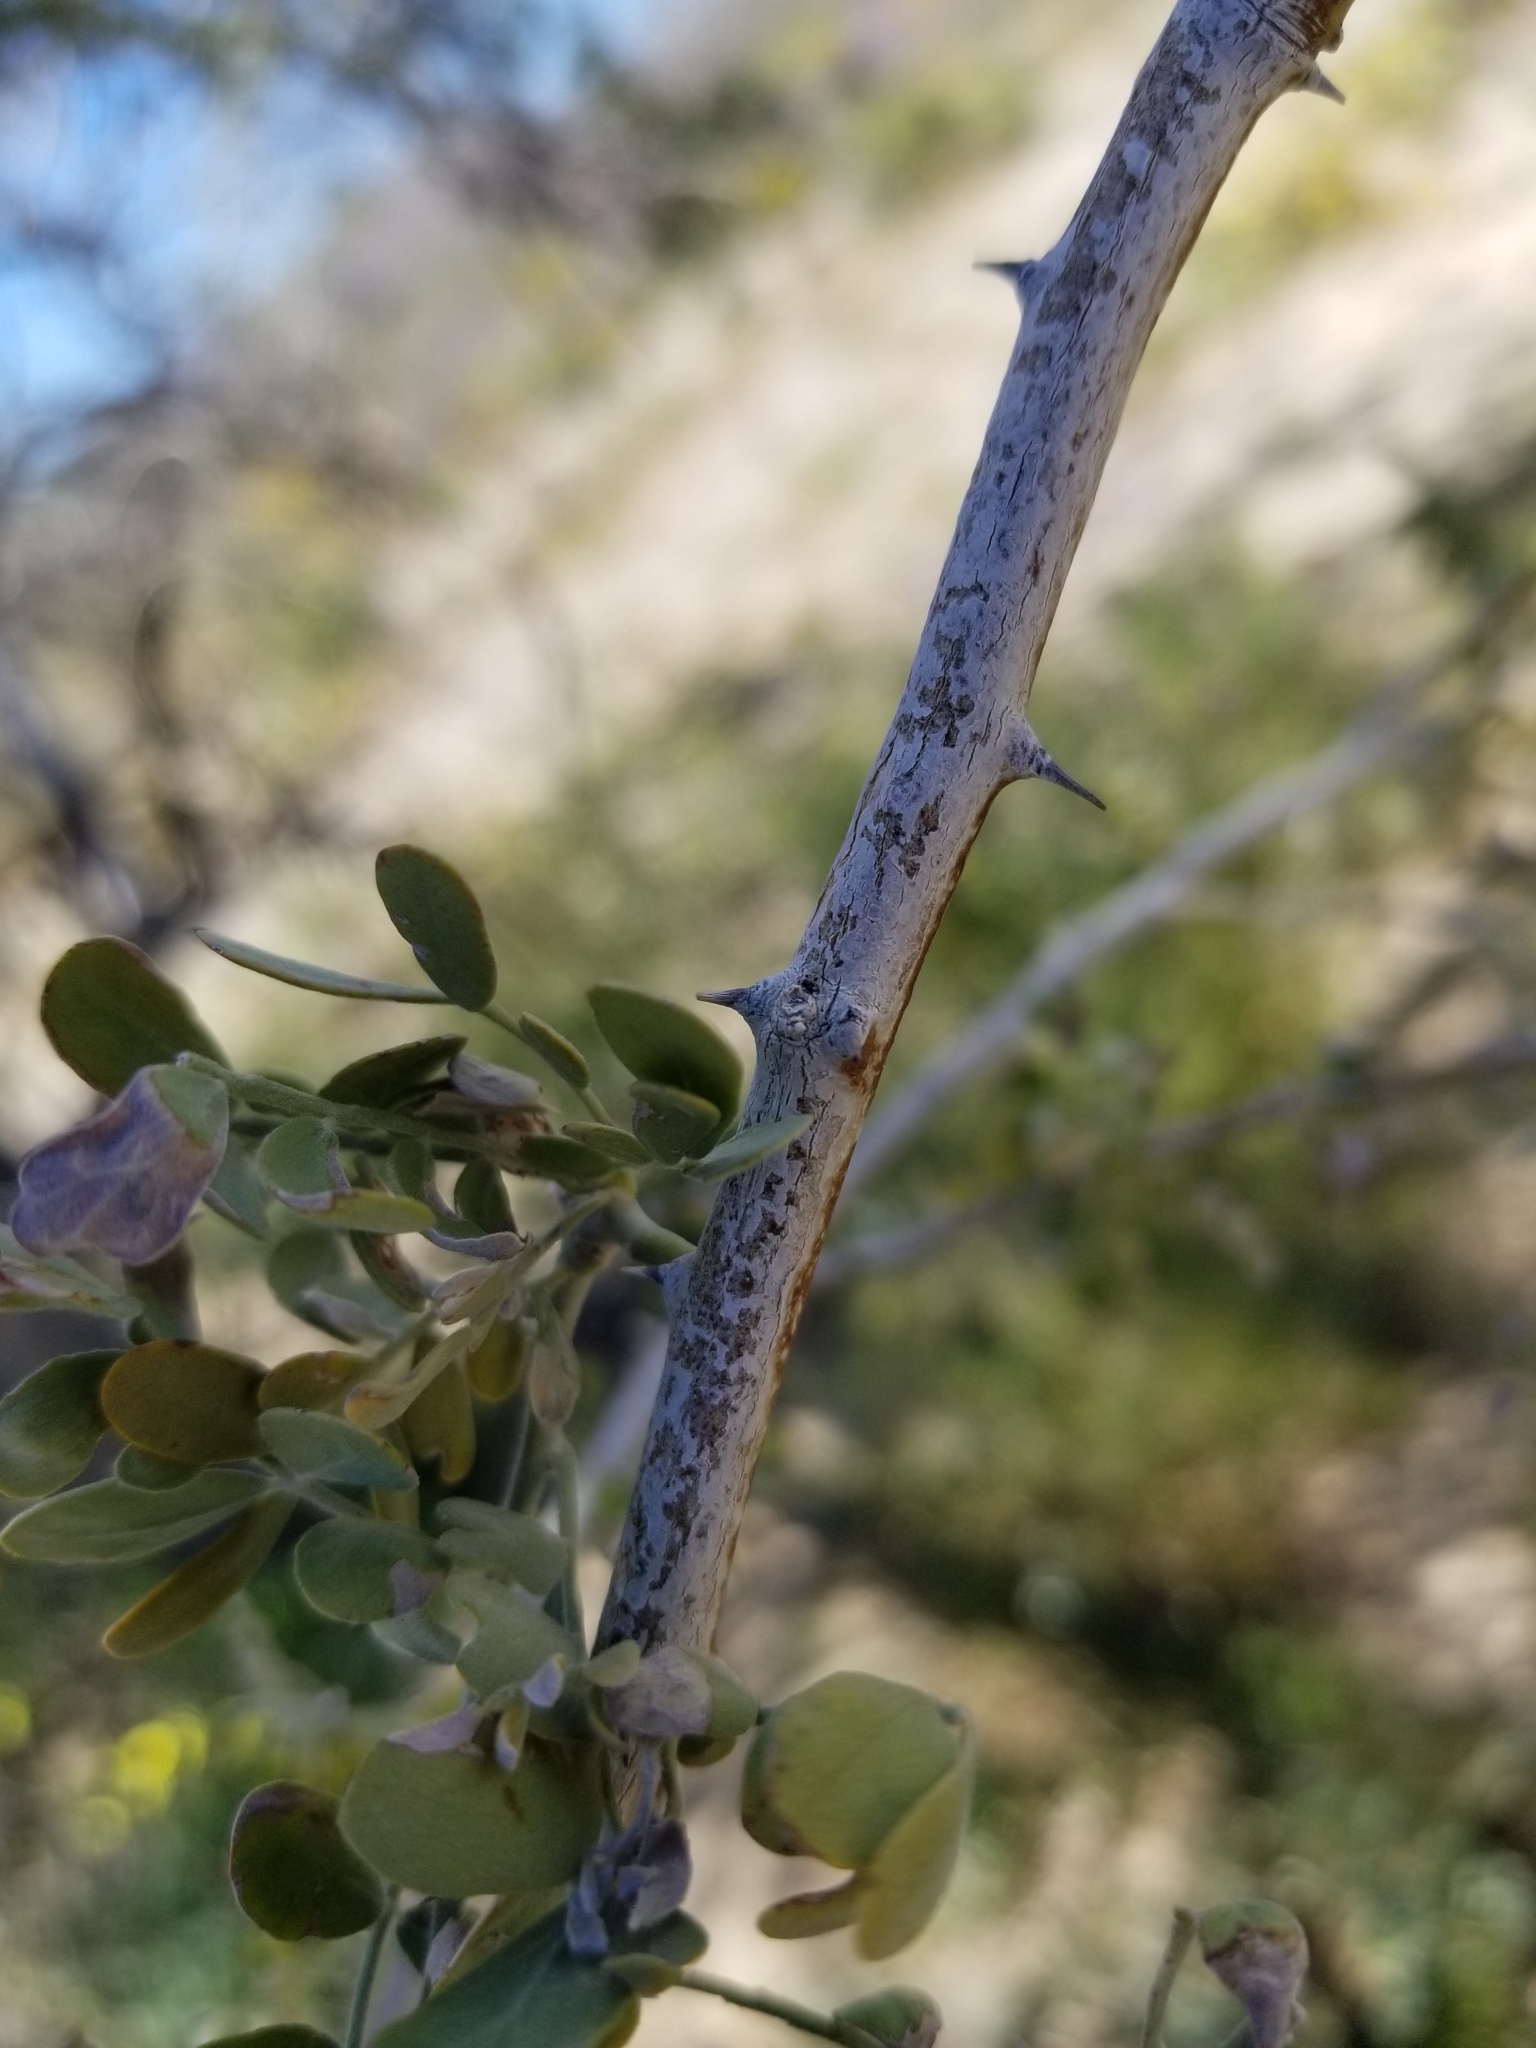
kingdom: Plantae
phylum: Tracheophyta
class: Magnoliopsida
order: Fabales
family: Fabaceae
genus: Olneya
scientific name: Olneya tesota
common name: Desert ironwood
